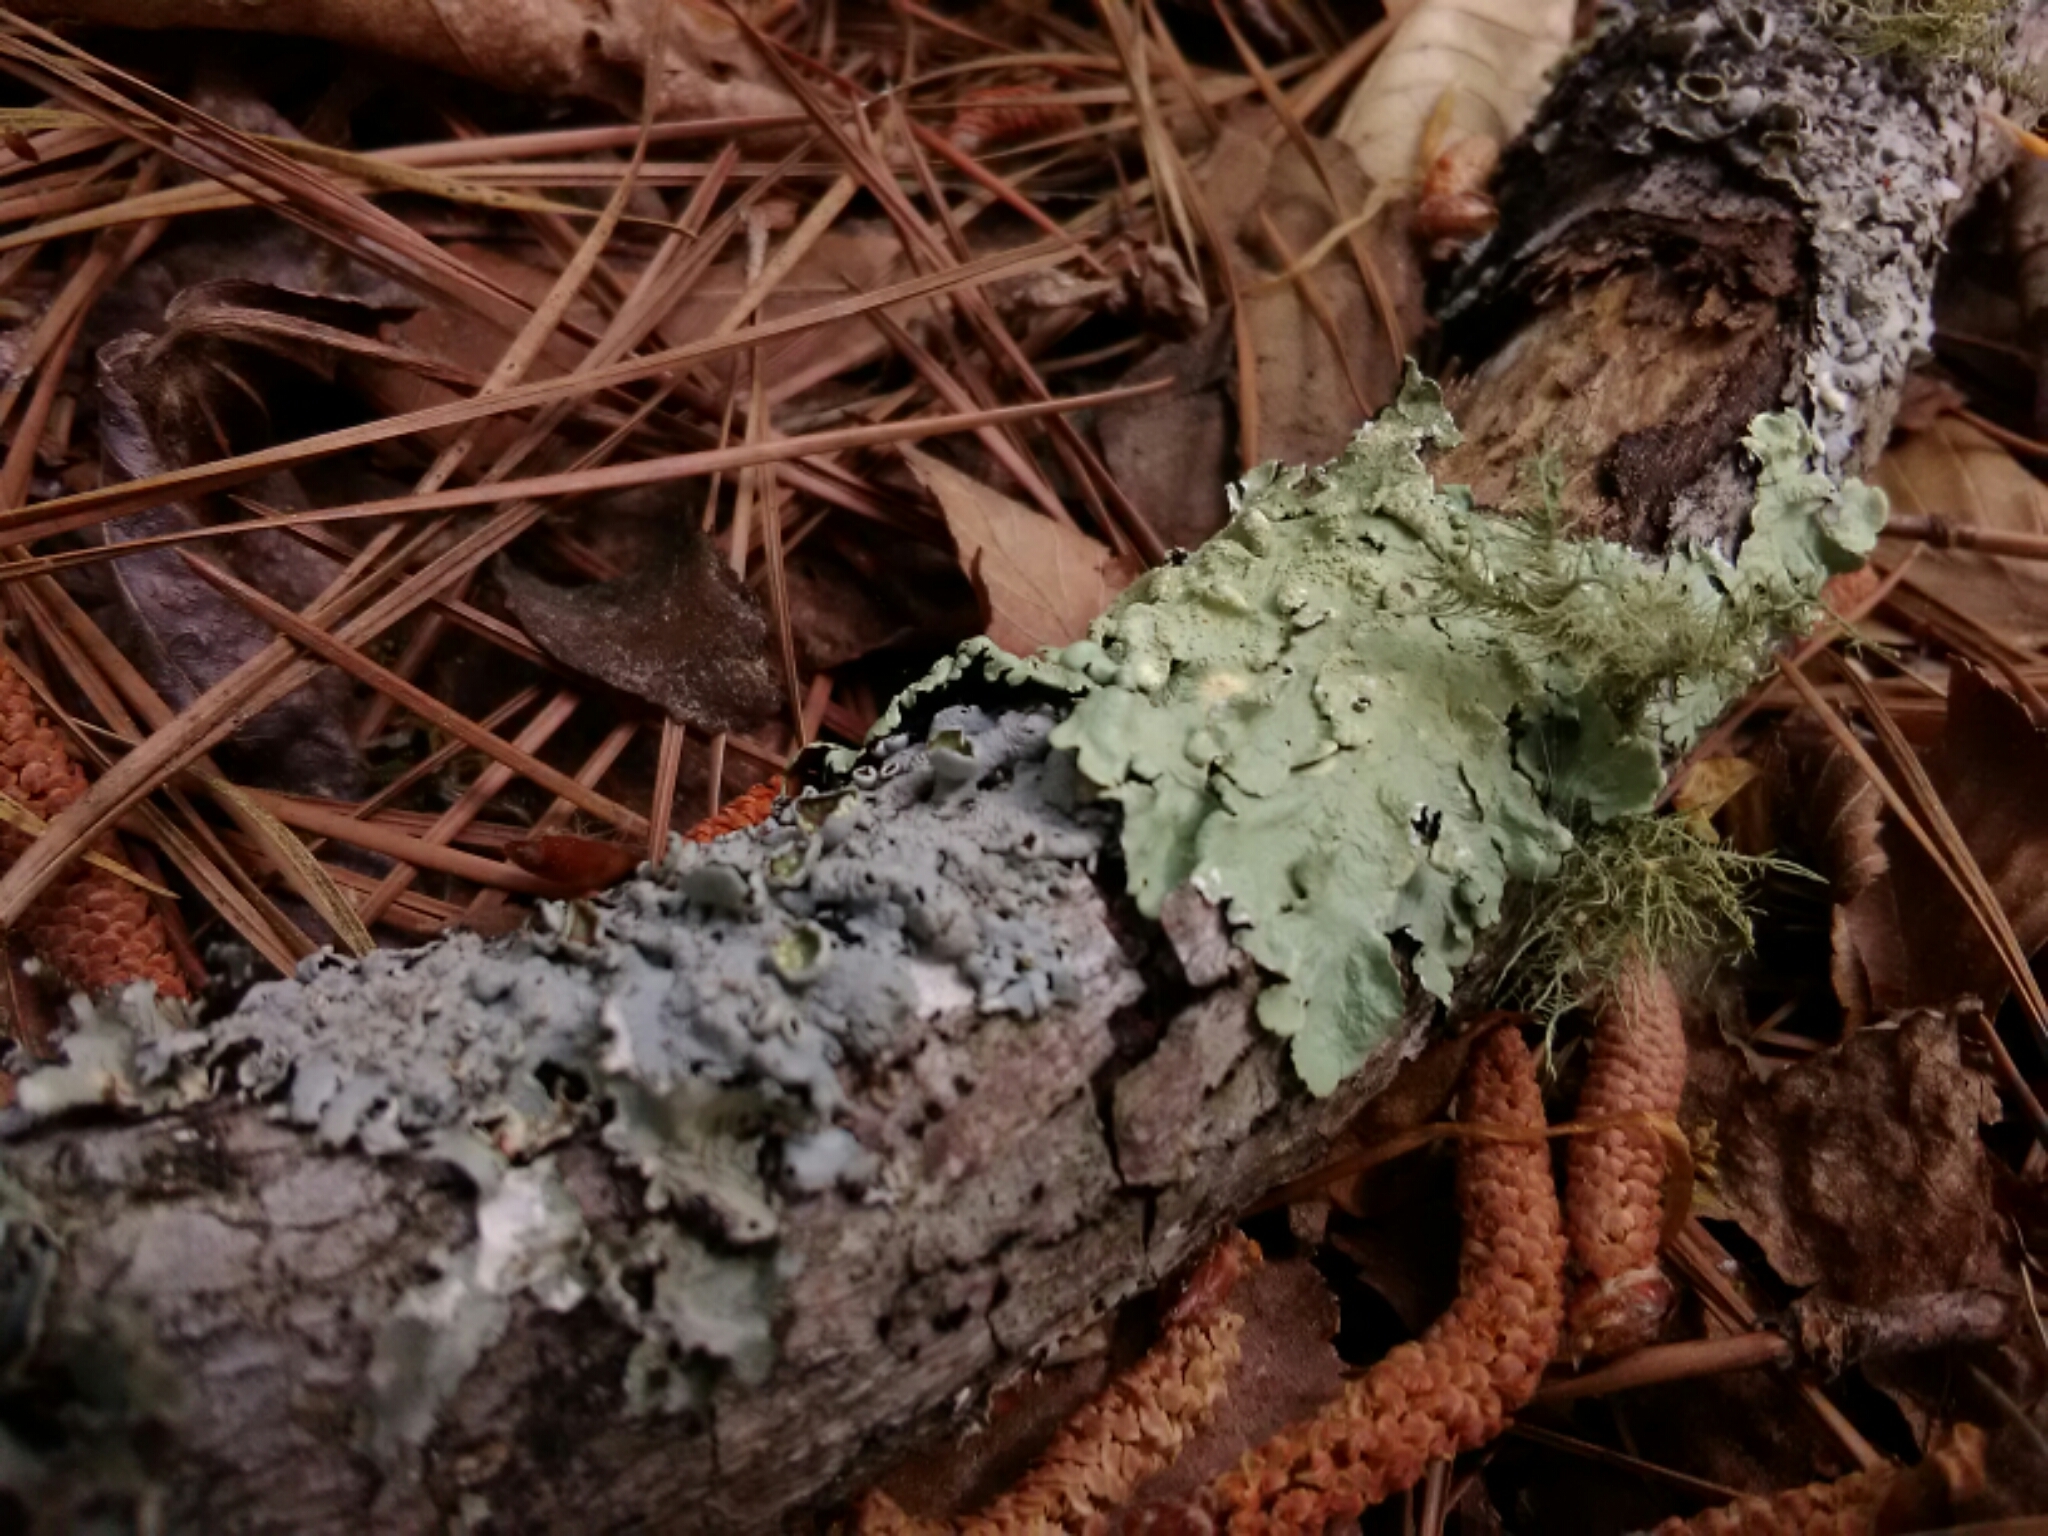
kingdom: Fungi
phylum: Ascomycota
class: Lecanoromycetes
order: Lecanorales
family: Parmeliaceae
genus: Flavoparmelia
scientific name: Flavoparmelia caperata
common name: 40-mile per hour lichen
